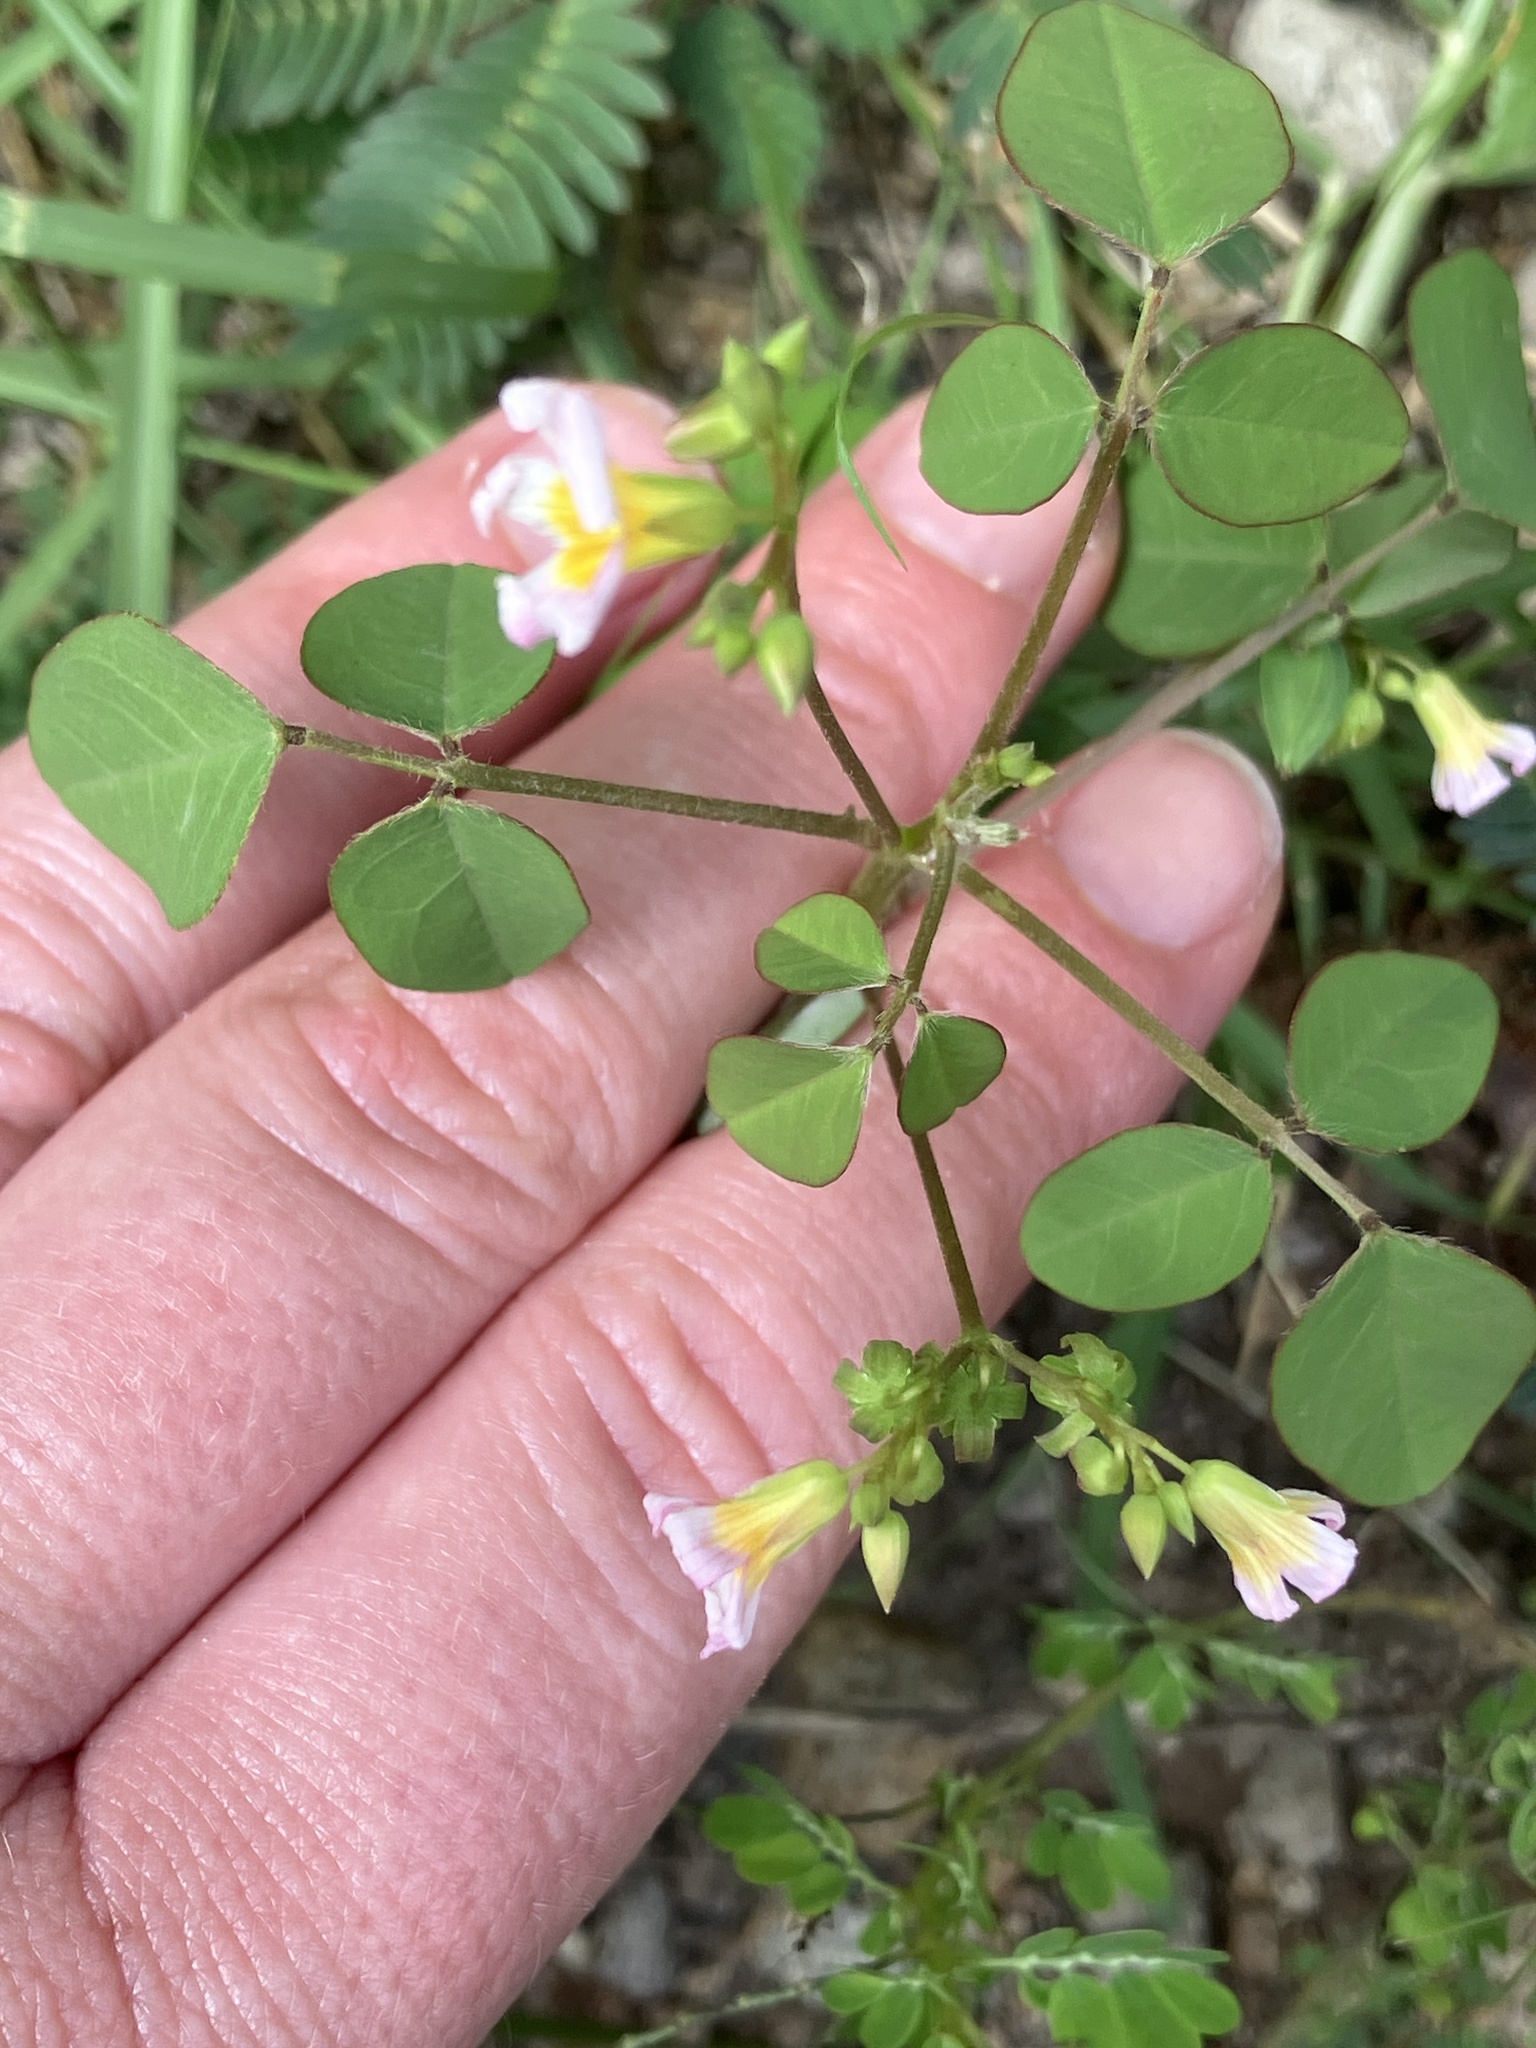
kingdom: Plantae
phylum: Tracheophyta
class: Magnoliopsida
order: Oxalidales
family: Oxalidaceae
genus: Oxalis
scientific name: Oxalis barrelieri
